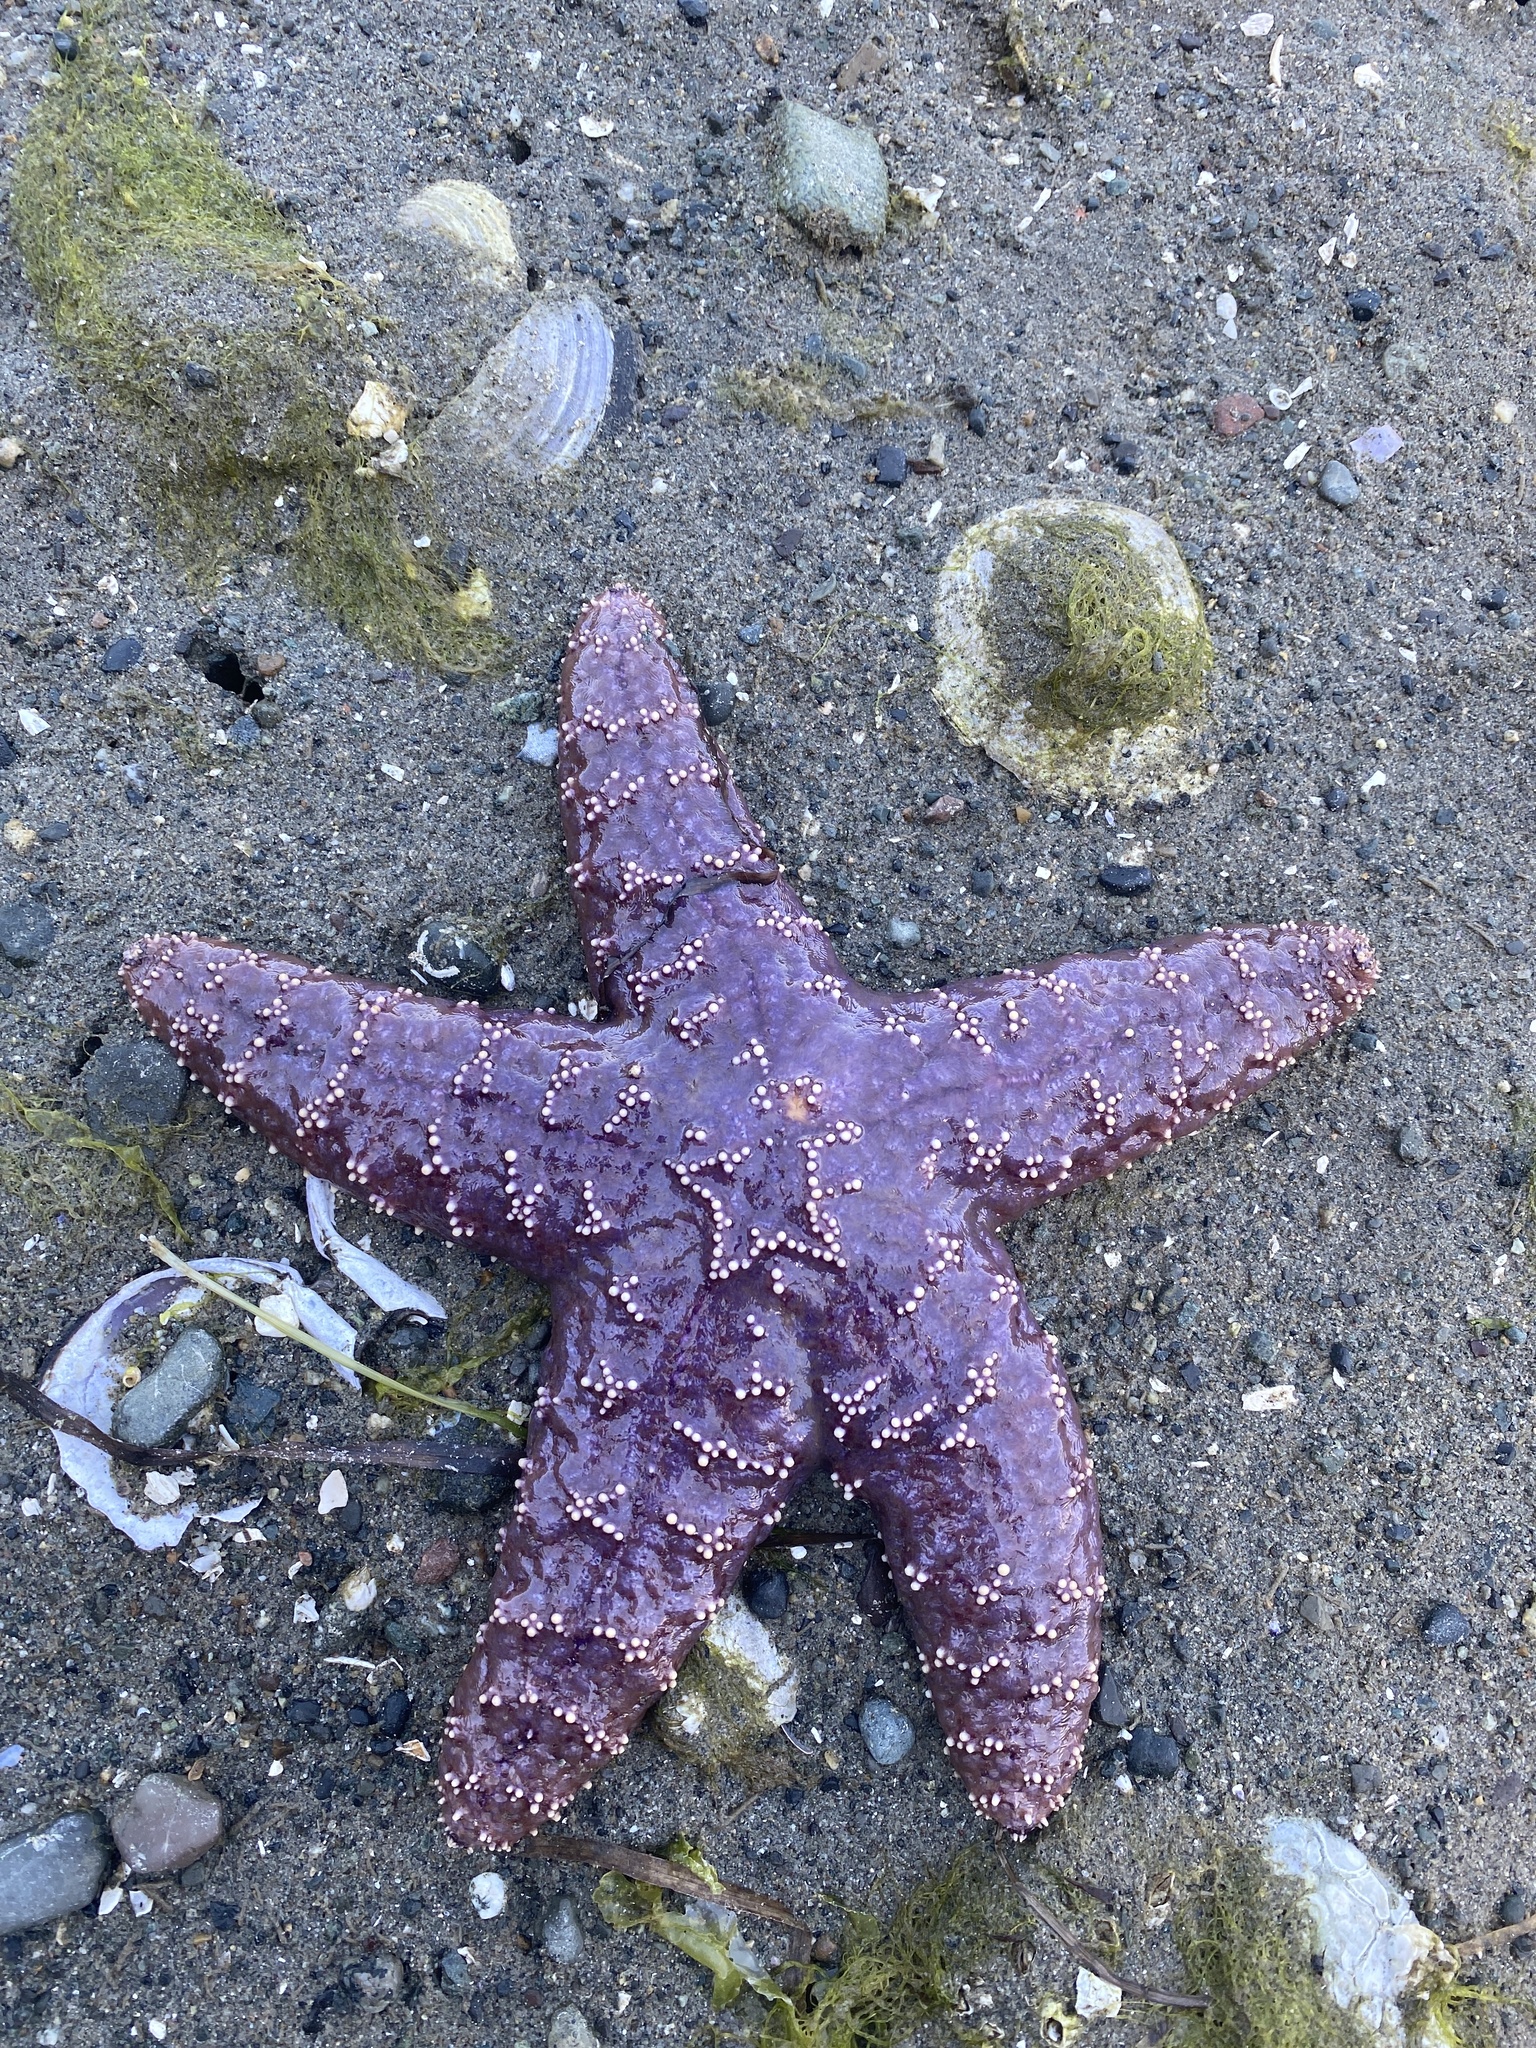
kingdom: Animalia
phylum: Echinodermata
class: Asteroidea
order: Forcipulatida
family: Asteriidae
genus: Pisaster
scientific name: Pisaster ochraceus
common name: Ochre stars
